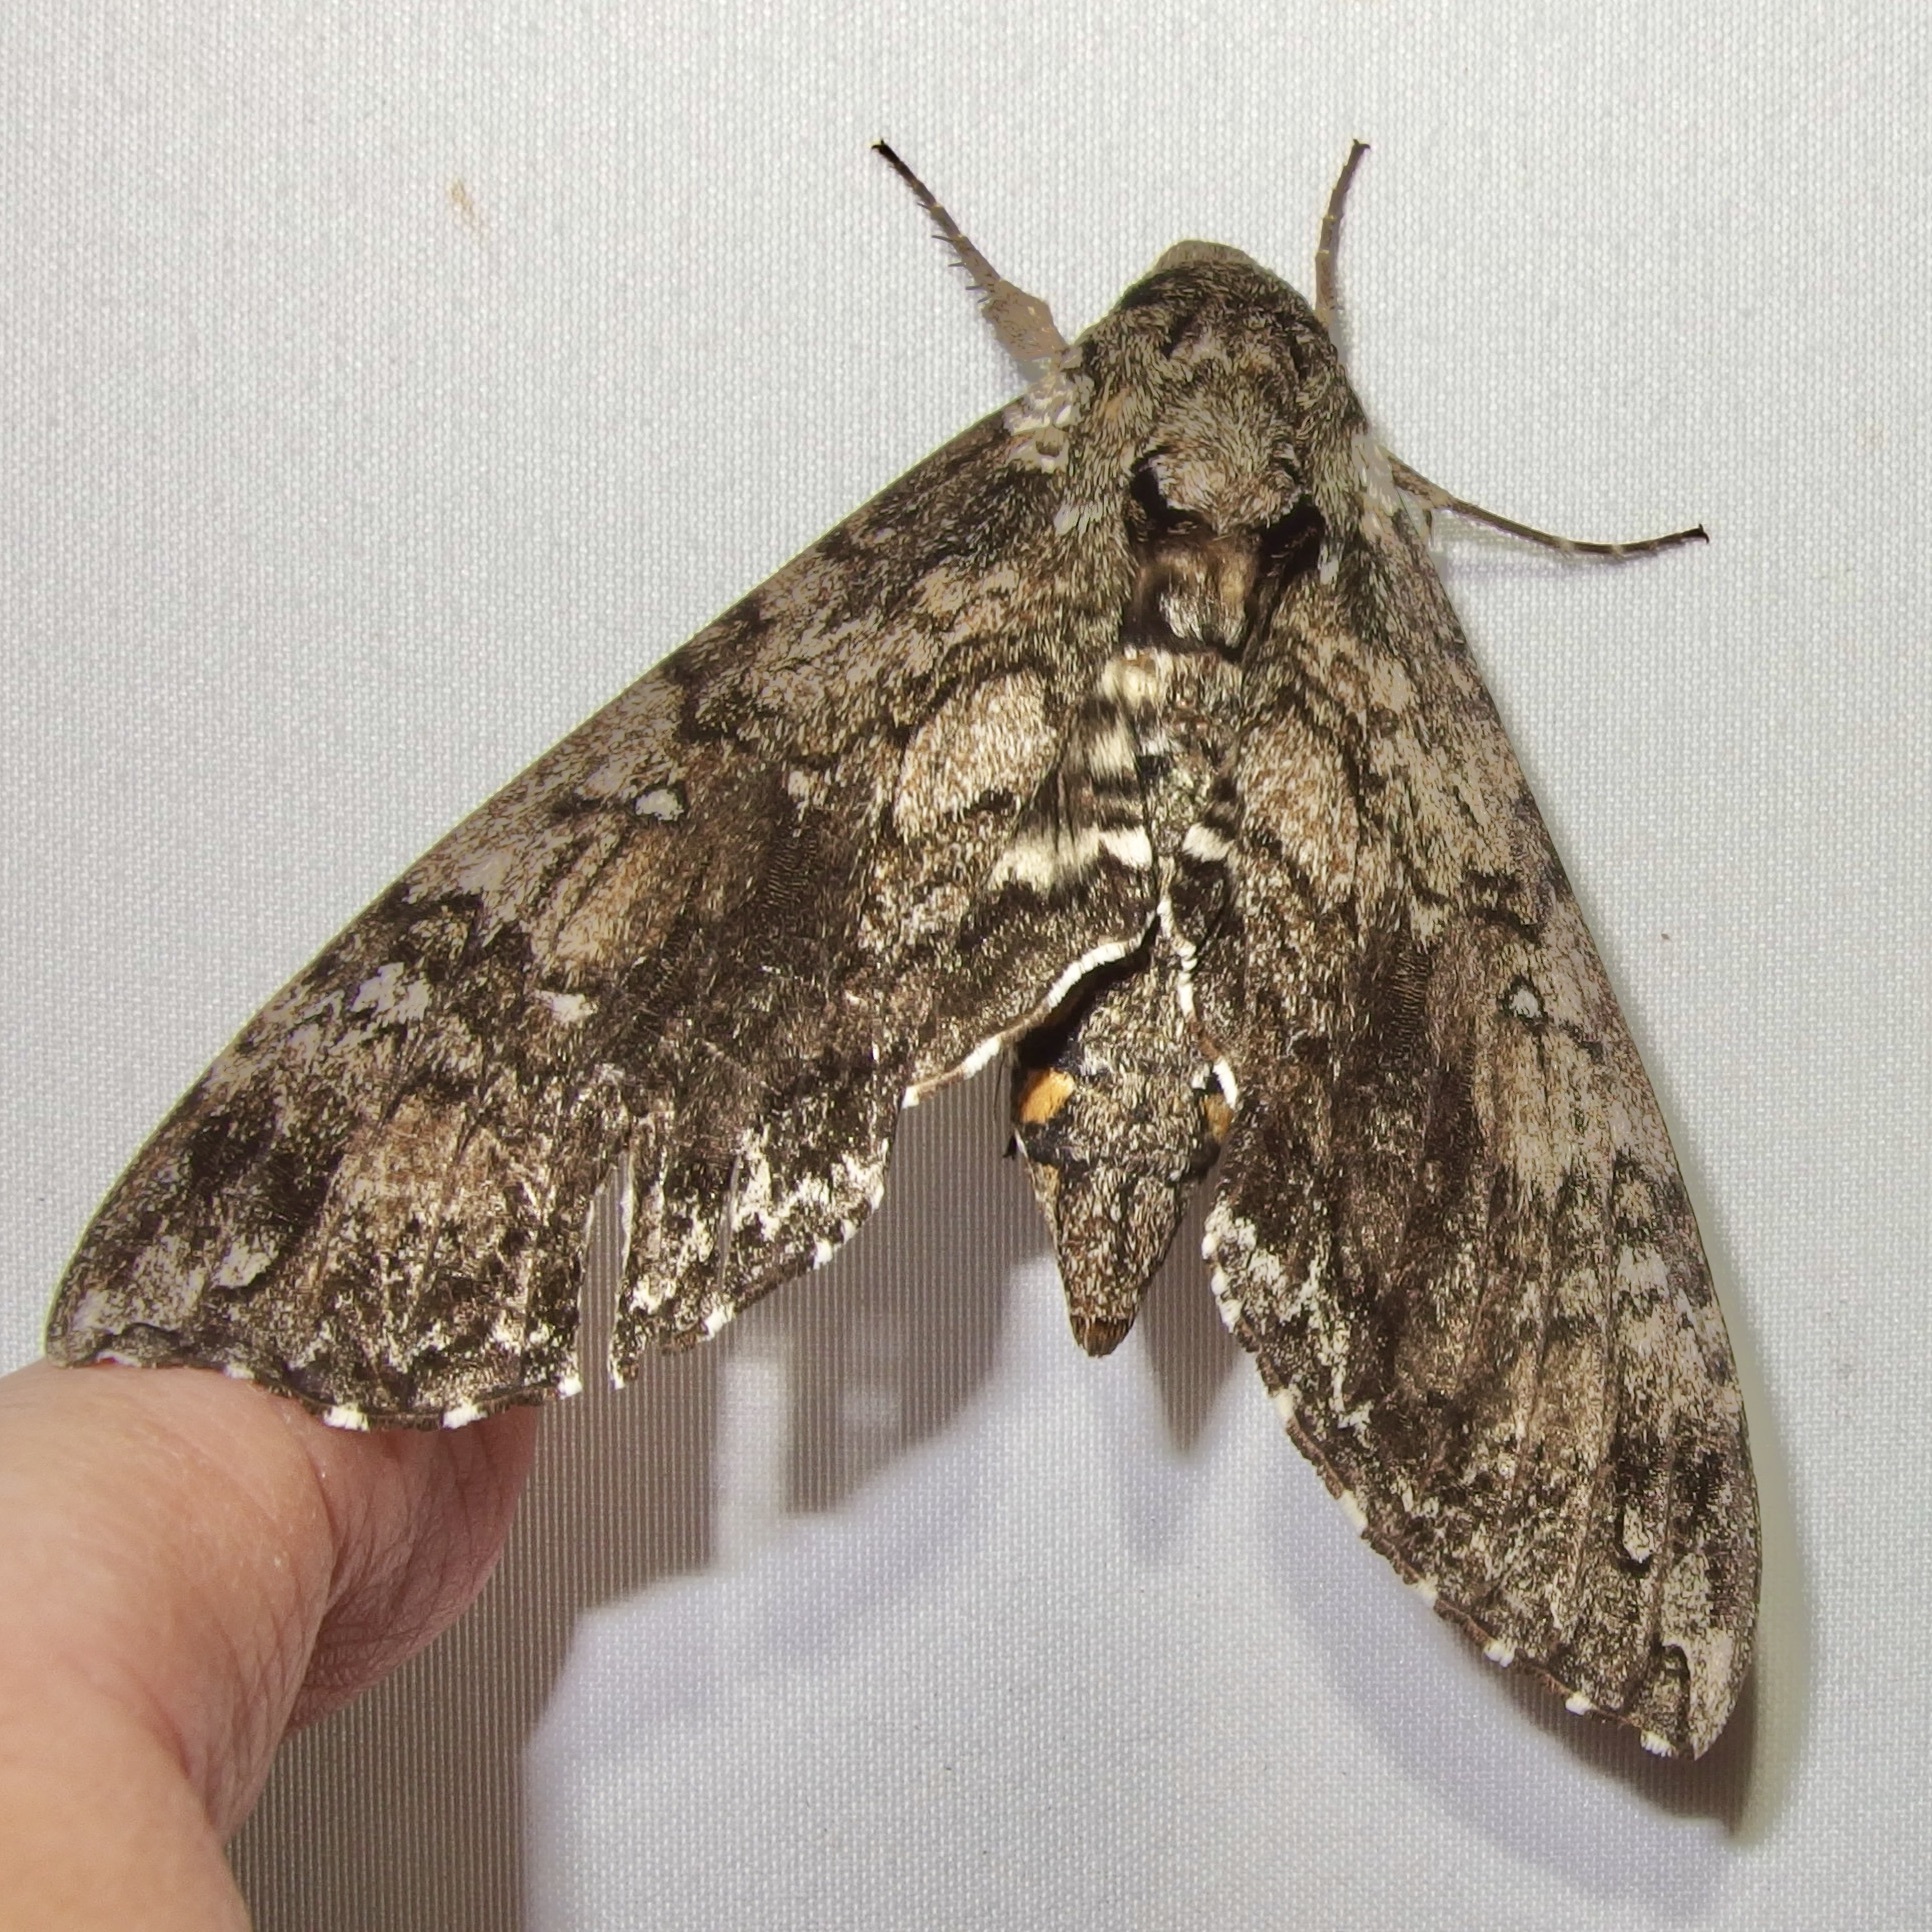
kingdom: Animalia
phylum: Arthropoda
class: Insecta
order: Lepidoptera
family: Sphingidae
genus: Manduca
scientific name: Manduca sexta
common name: Carolina sphinx
